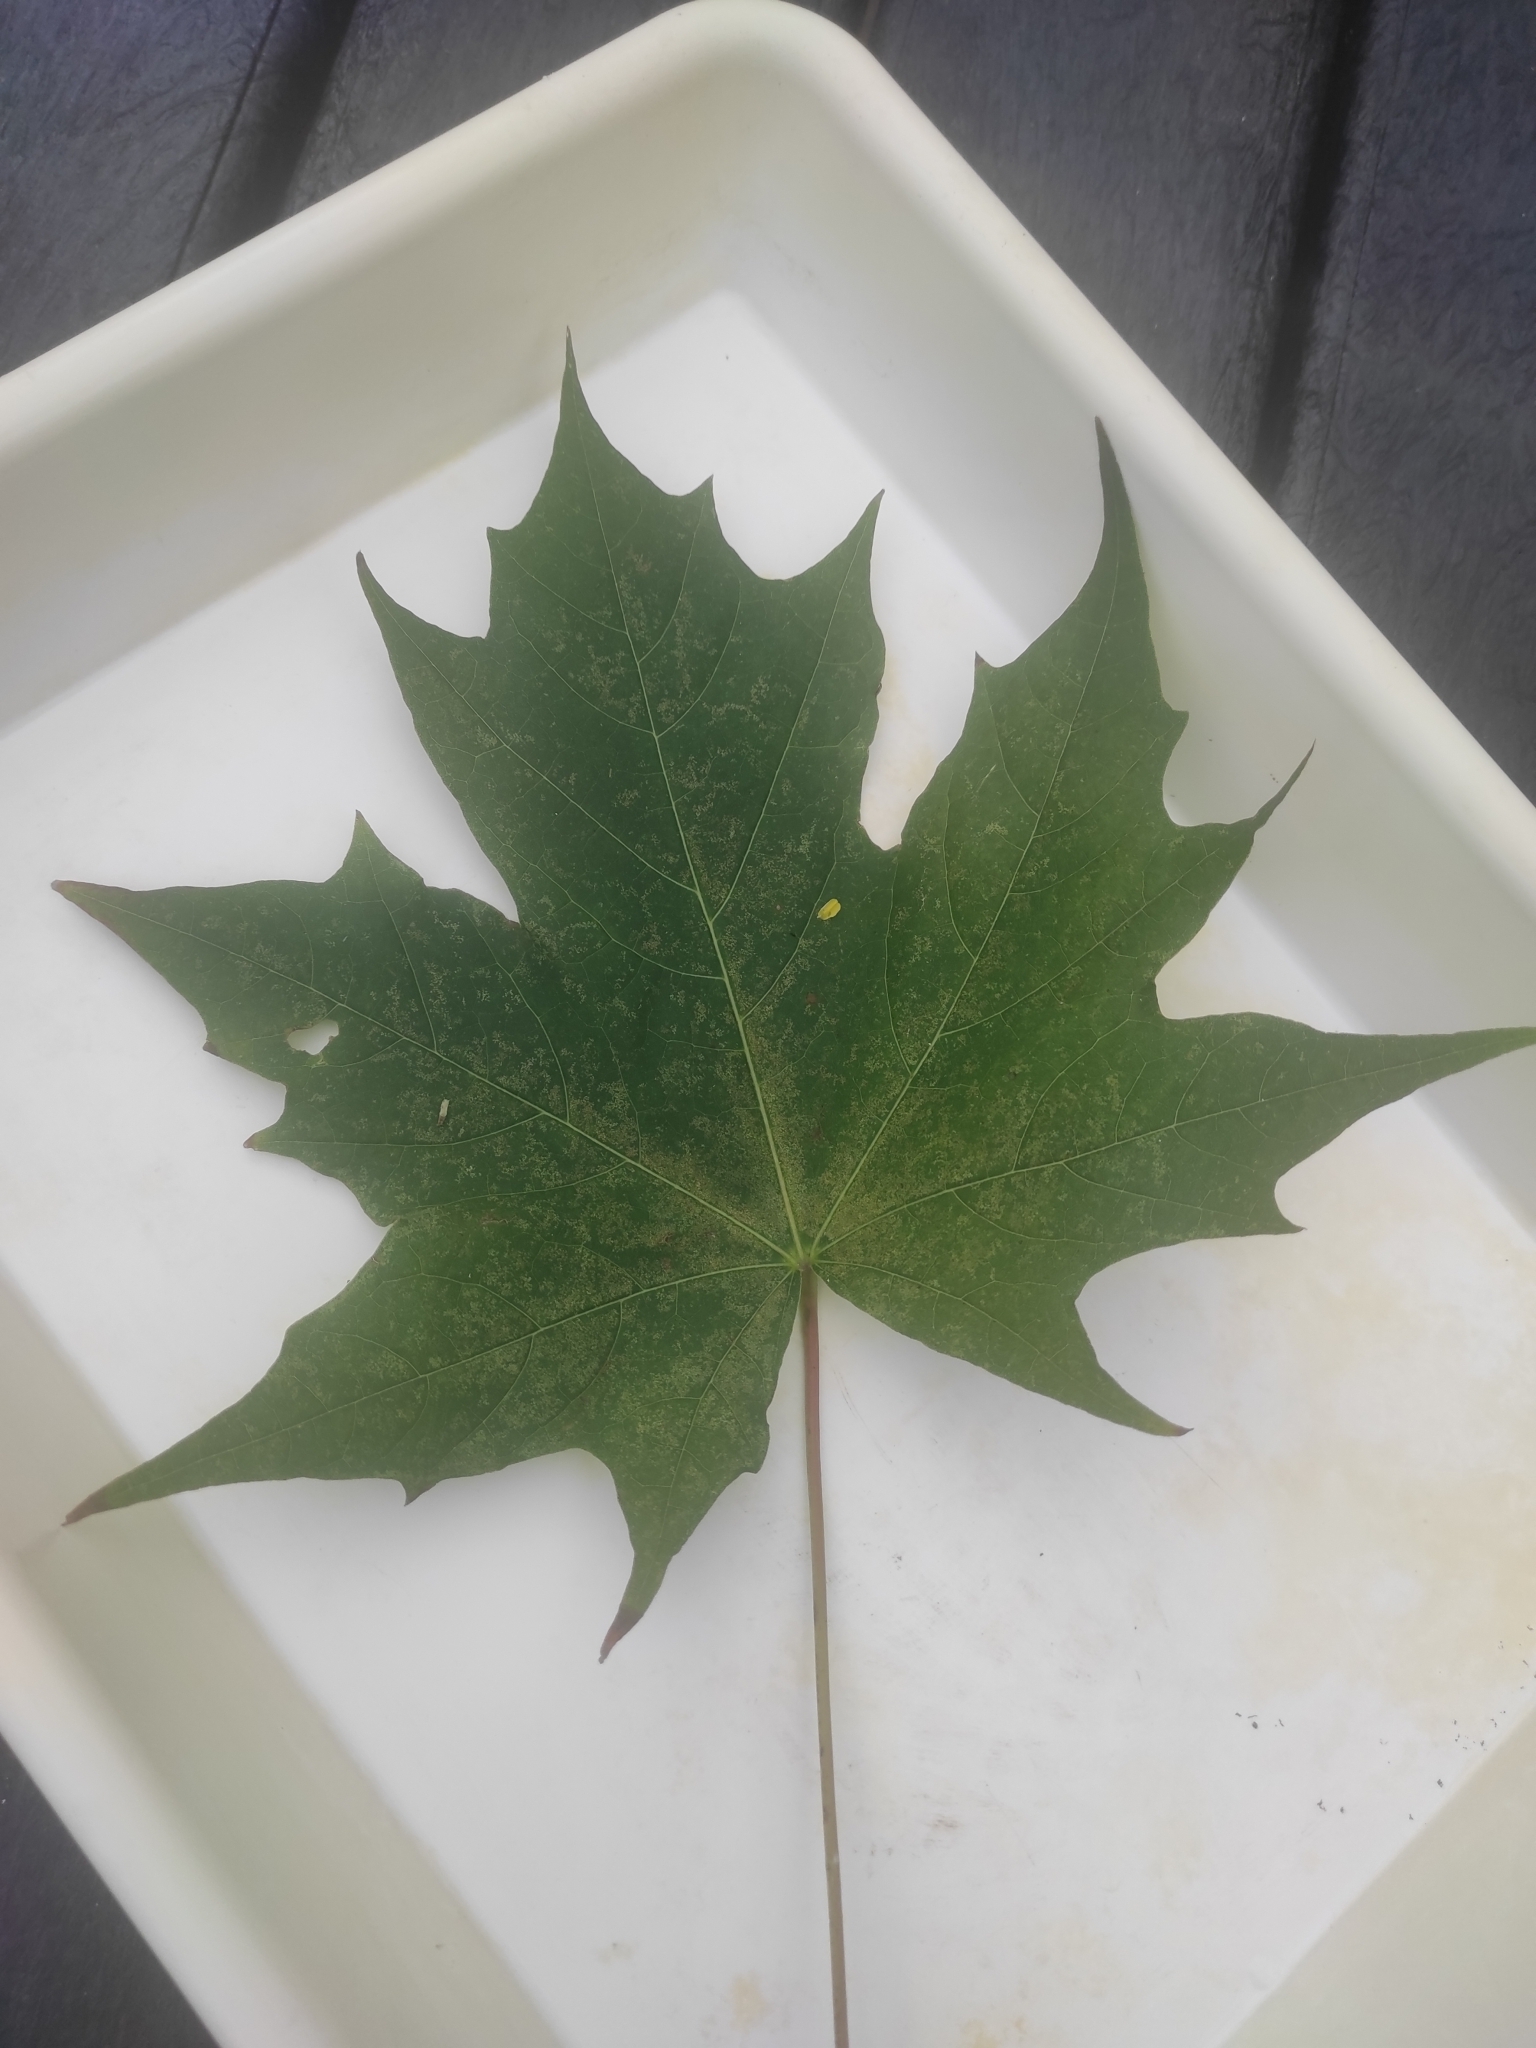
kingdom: Plantae
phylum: Tracheophyta
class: Magnoliopsida
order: Sapindales
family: Sapindaceae
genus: Acer
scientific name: Acer platanoides
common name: Norway maple
